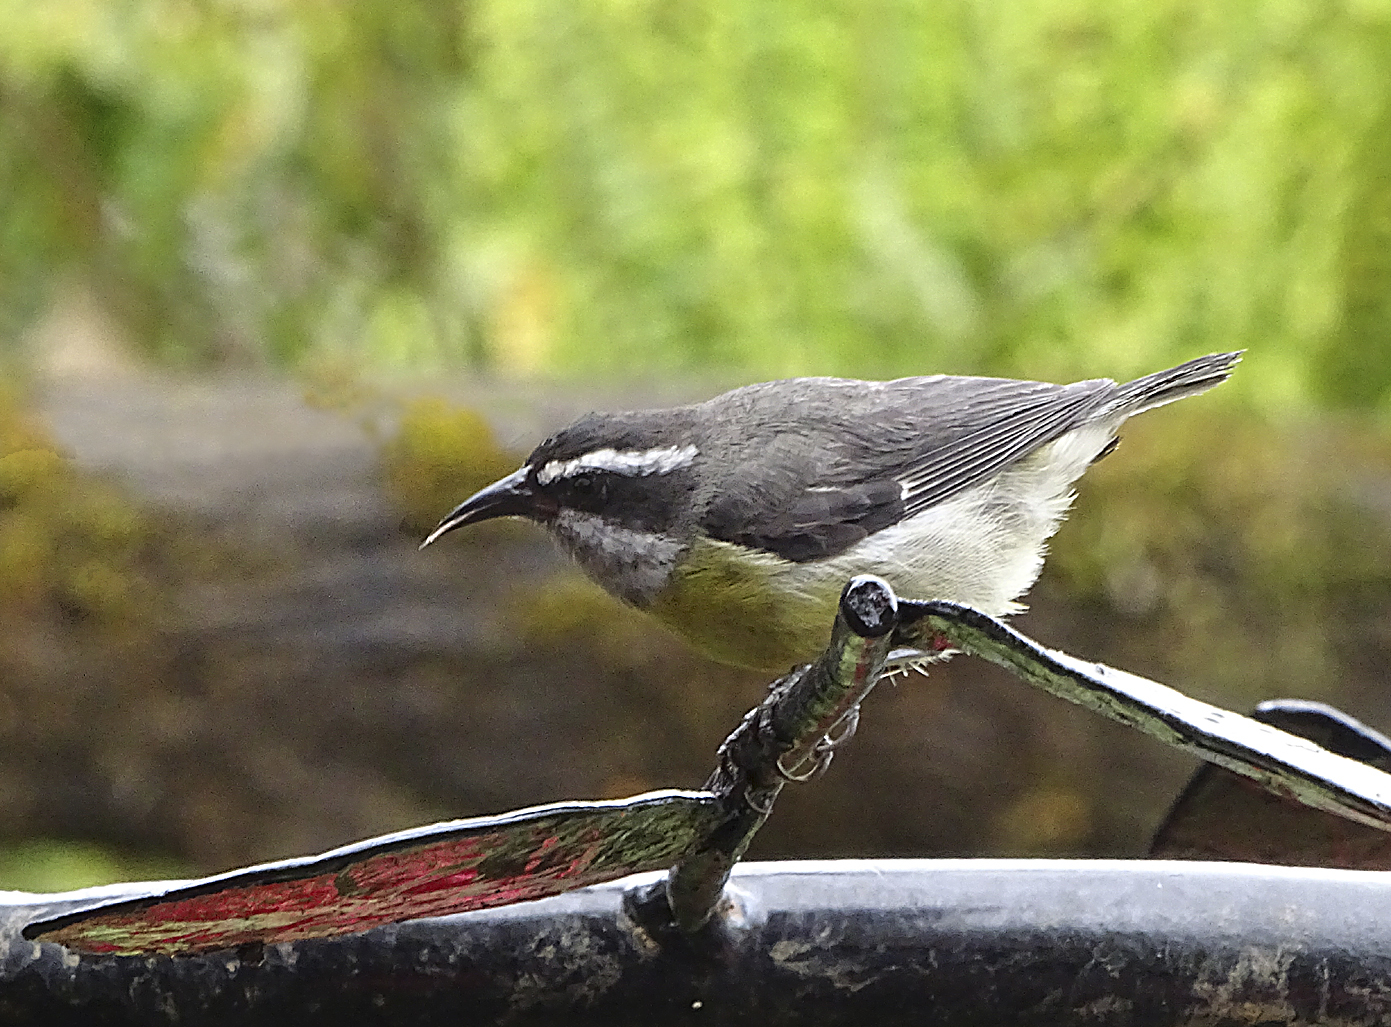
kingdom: Animalia
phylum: Chordata
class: Aves
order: Passeriformes
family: Thraupidae
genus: Coereba
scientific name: Coereba flaveola
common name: Bananaquit
